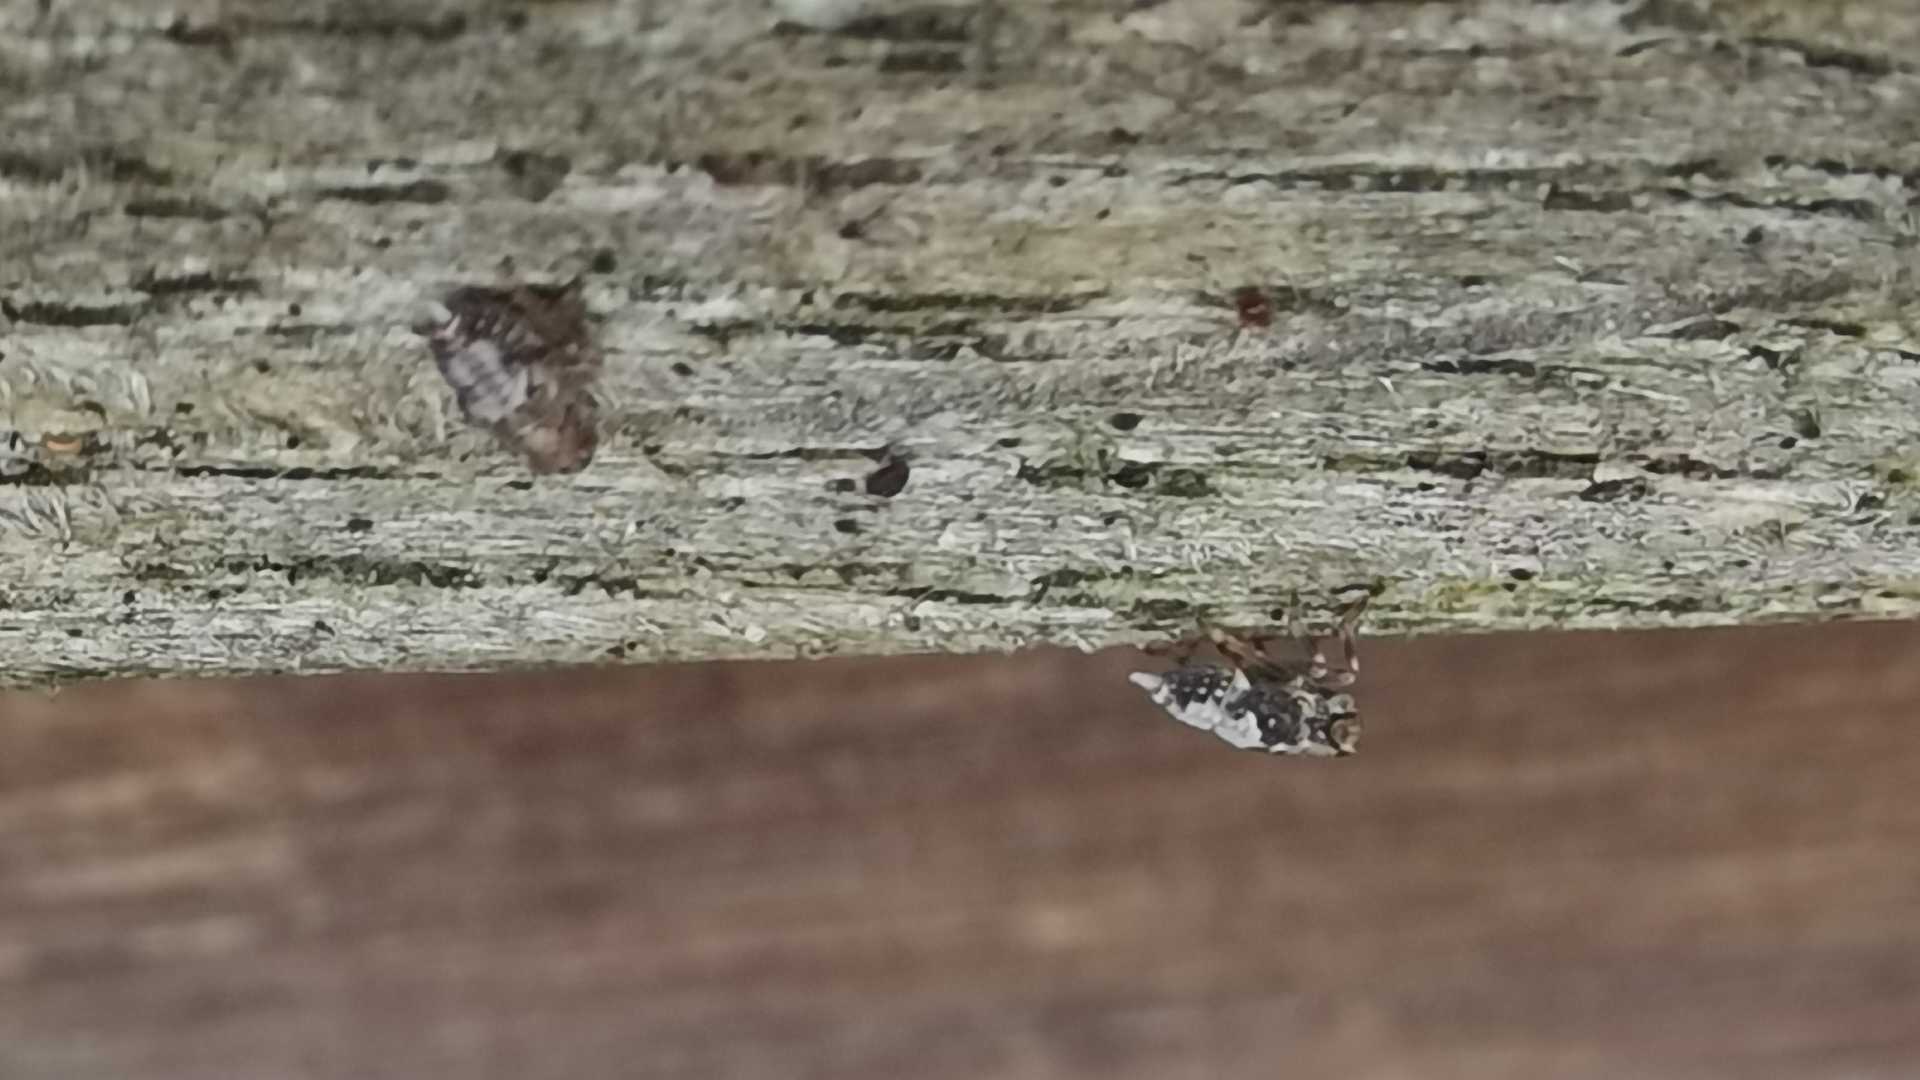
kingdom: Animalia
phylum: Arthropoda
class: Insecta
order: Hemiptera
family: Issidae
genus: Issus
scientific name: Issus
